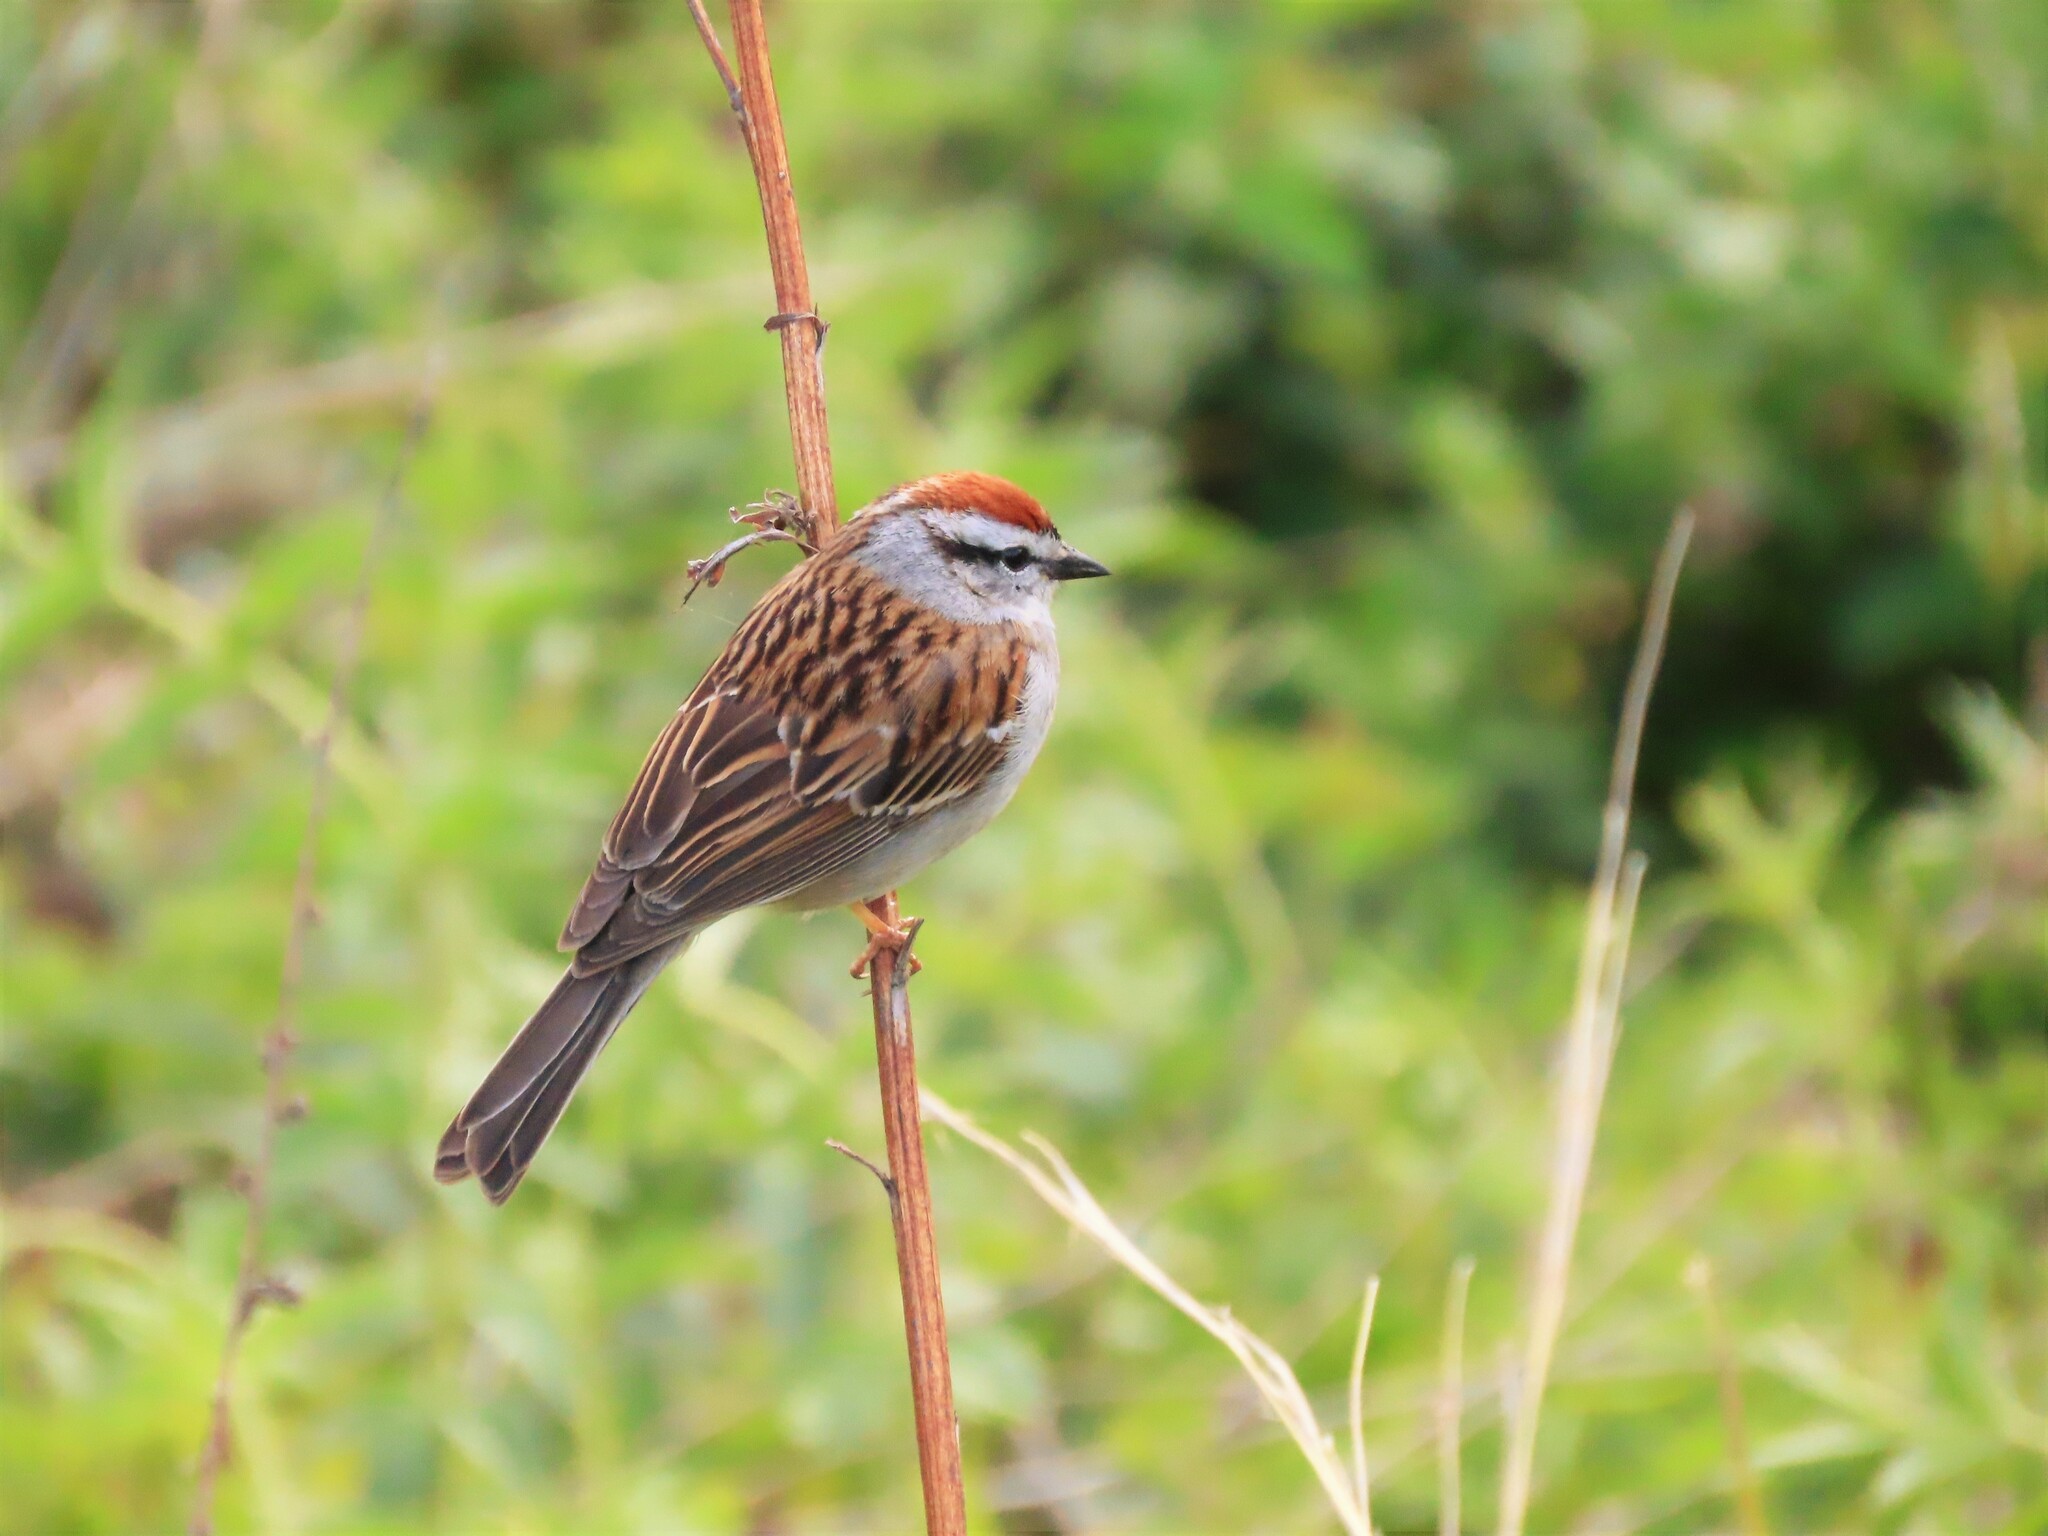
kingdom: Animalia
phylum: Chordata
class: Aves
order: Passeriformes
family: Passerellidae
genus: Spizella
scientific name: Spizella passerina
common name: Chipping sparrow
